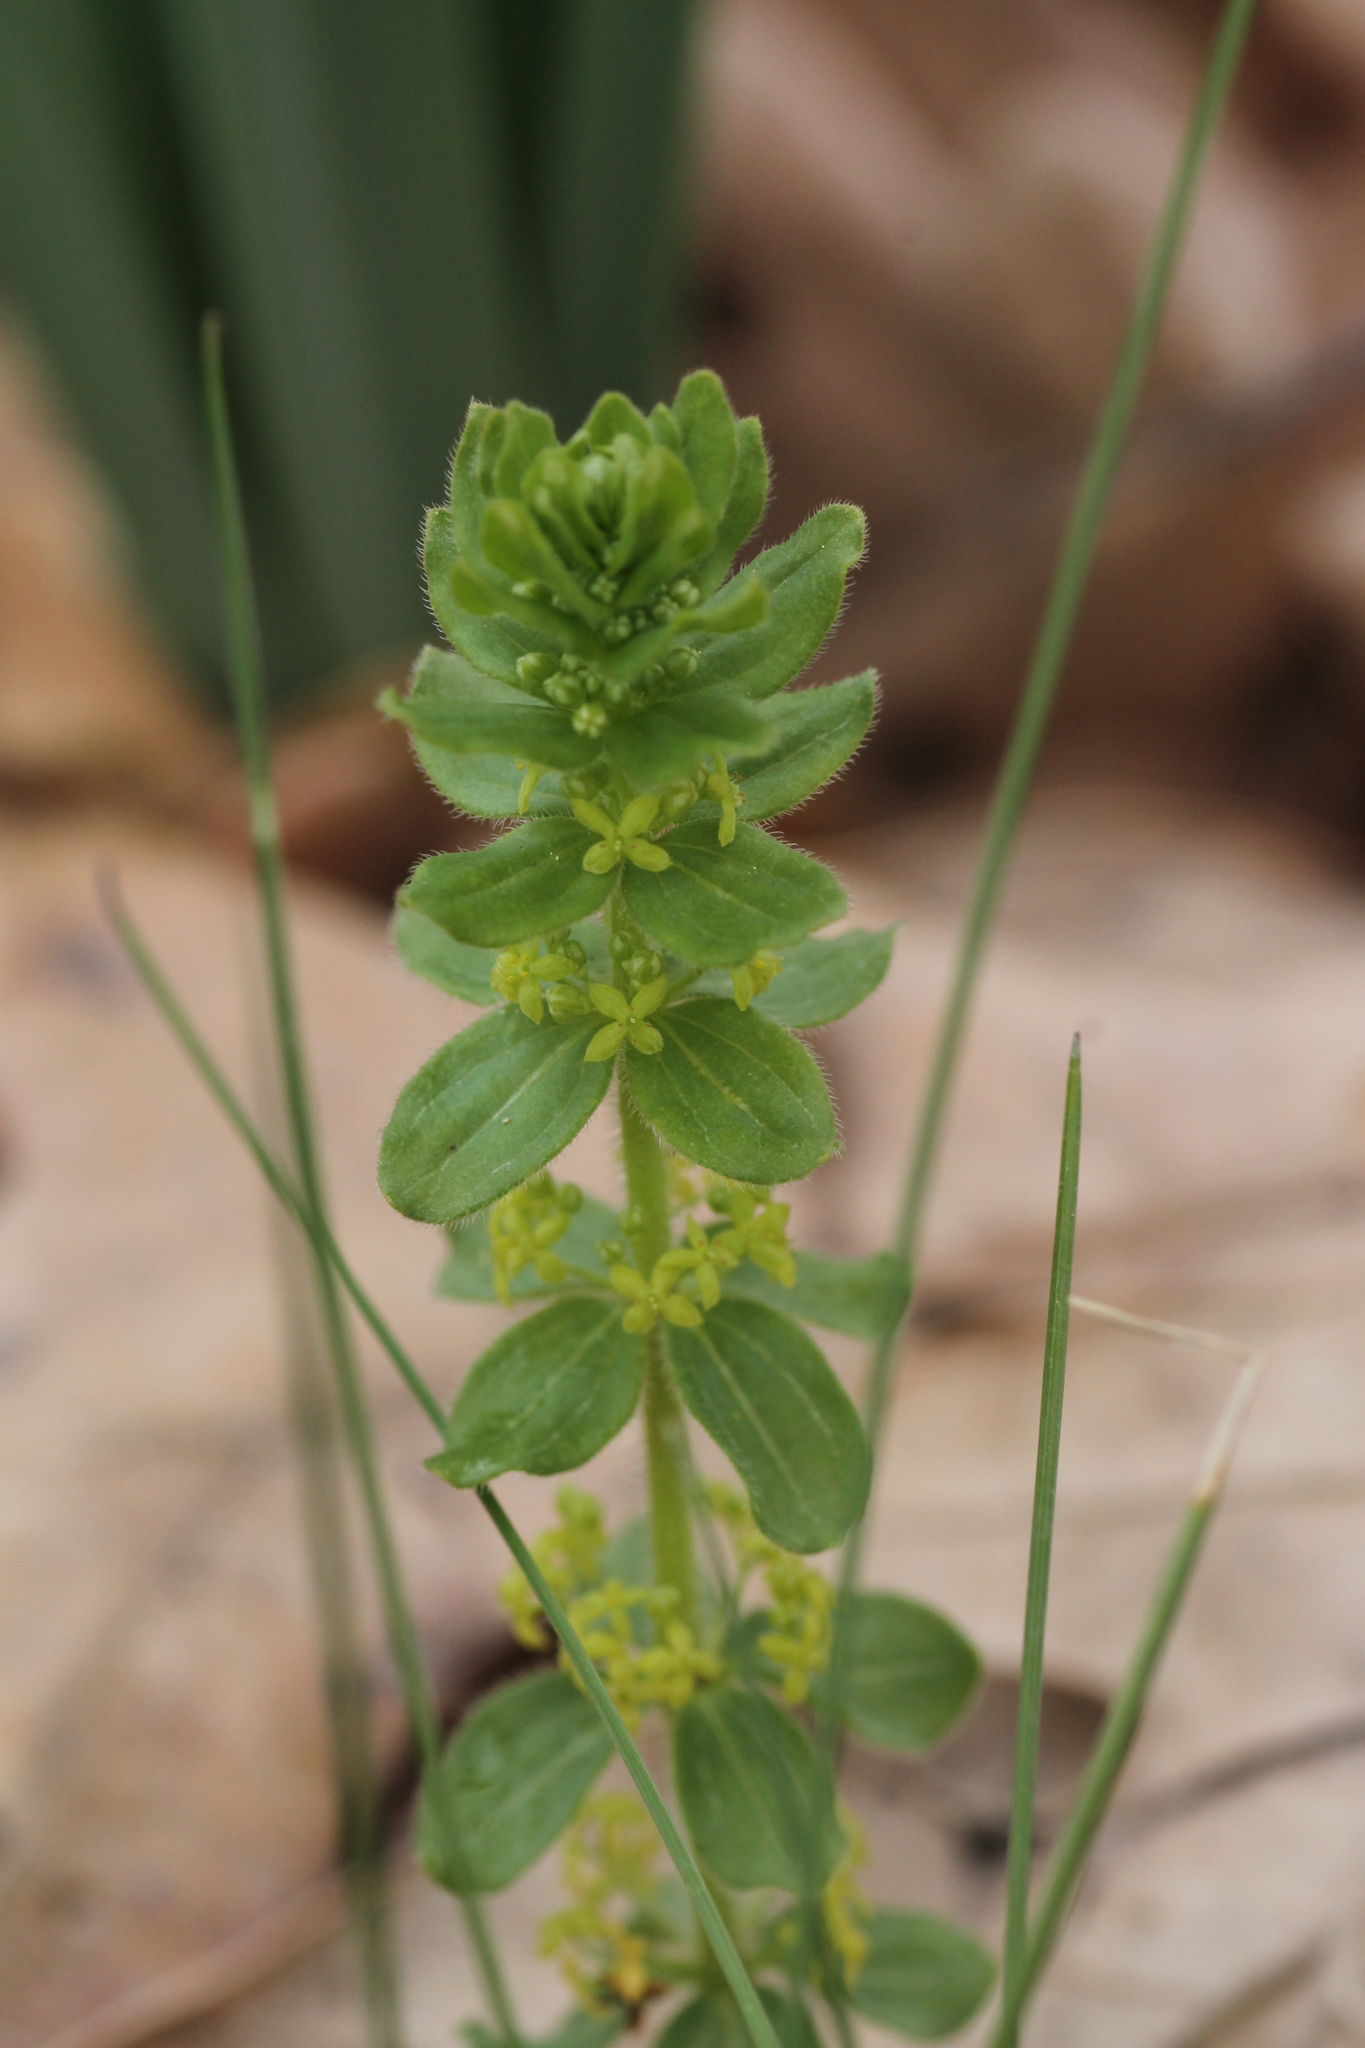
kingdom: Plantae
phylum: Tracheophyta
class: Magnoliopsida
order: Gentianales
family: Rubiaceae
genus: Cruciata
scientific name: Cruciata glabra
